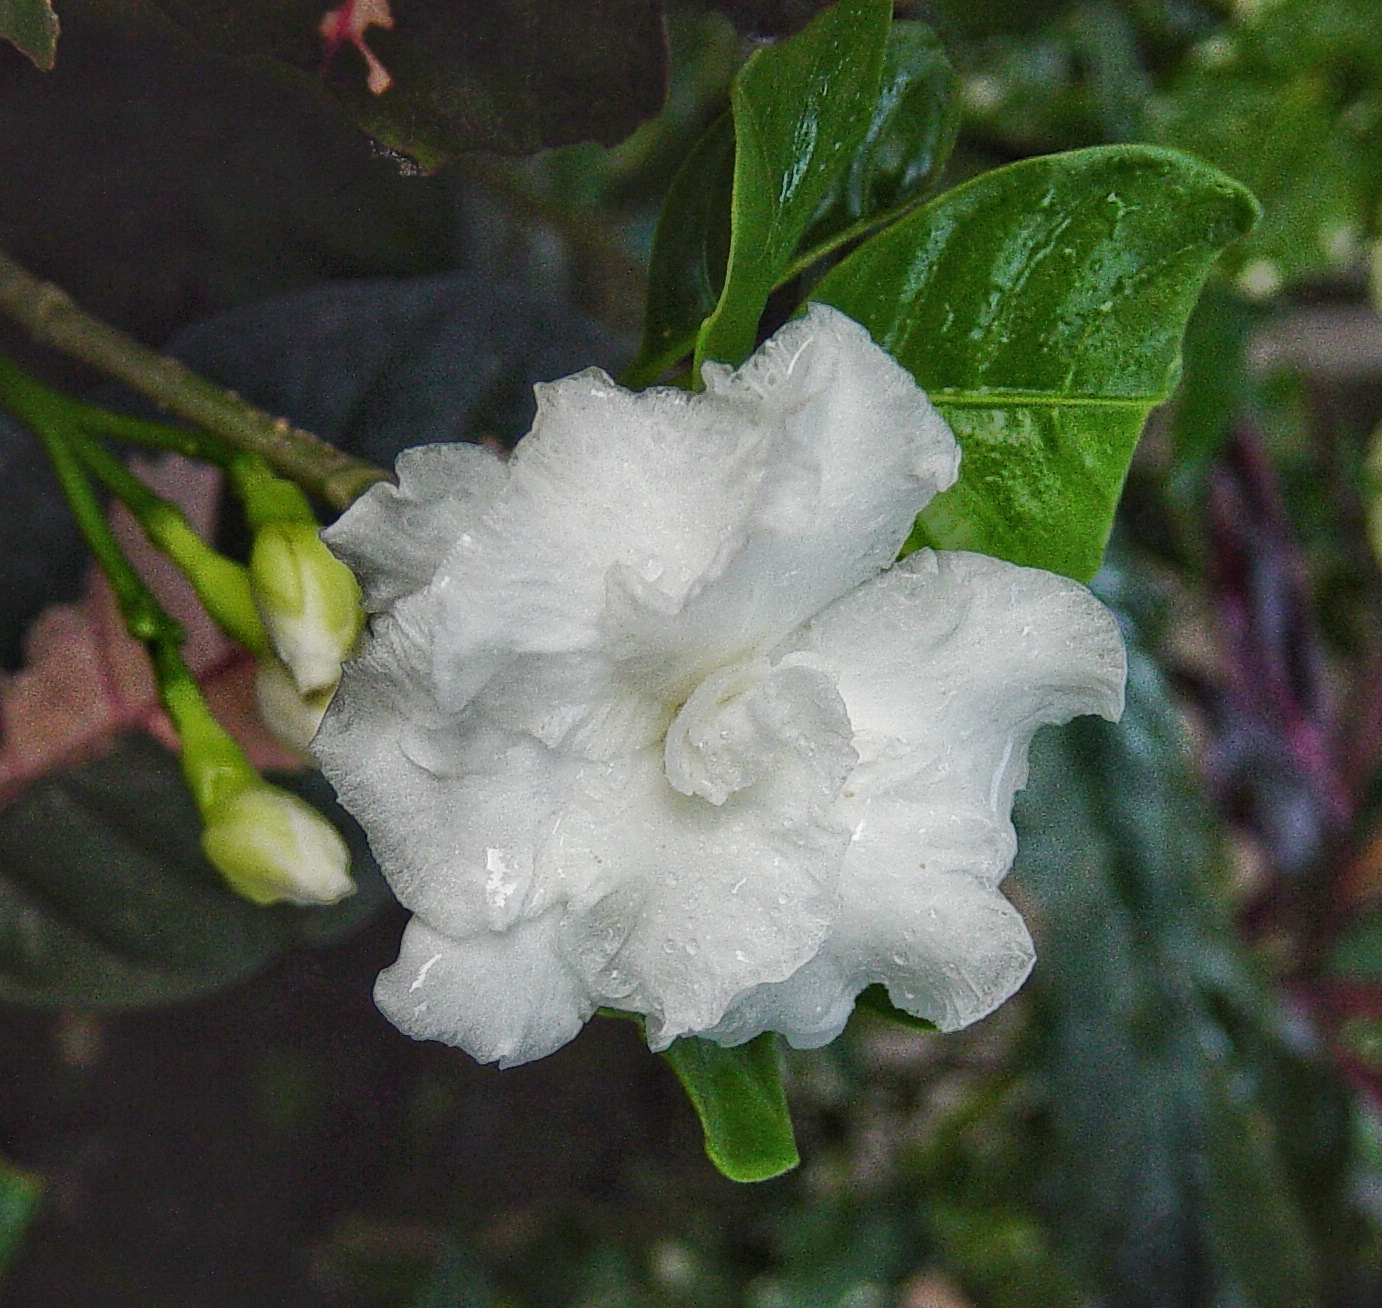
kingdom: Plantae
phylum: Tracheophyta
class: Magnoliopsida
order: Gentianales
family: Apocynaceae
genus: Tabernaemontana
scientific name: Tabernaemontana divaricata
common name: Pinwheelflower
